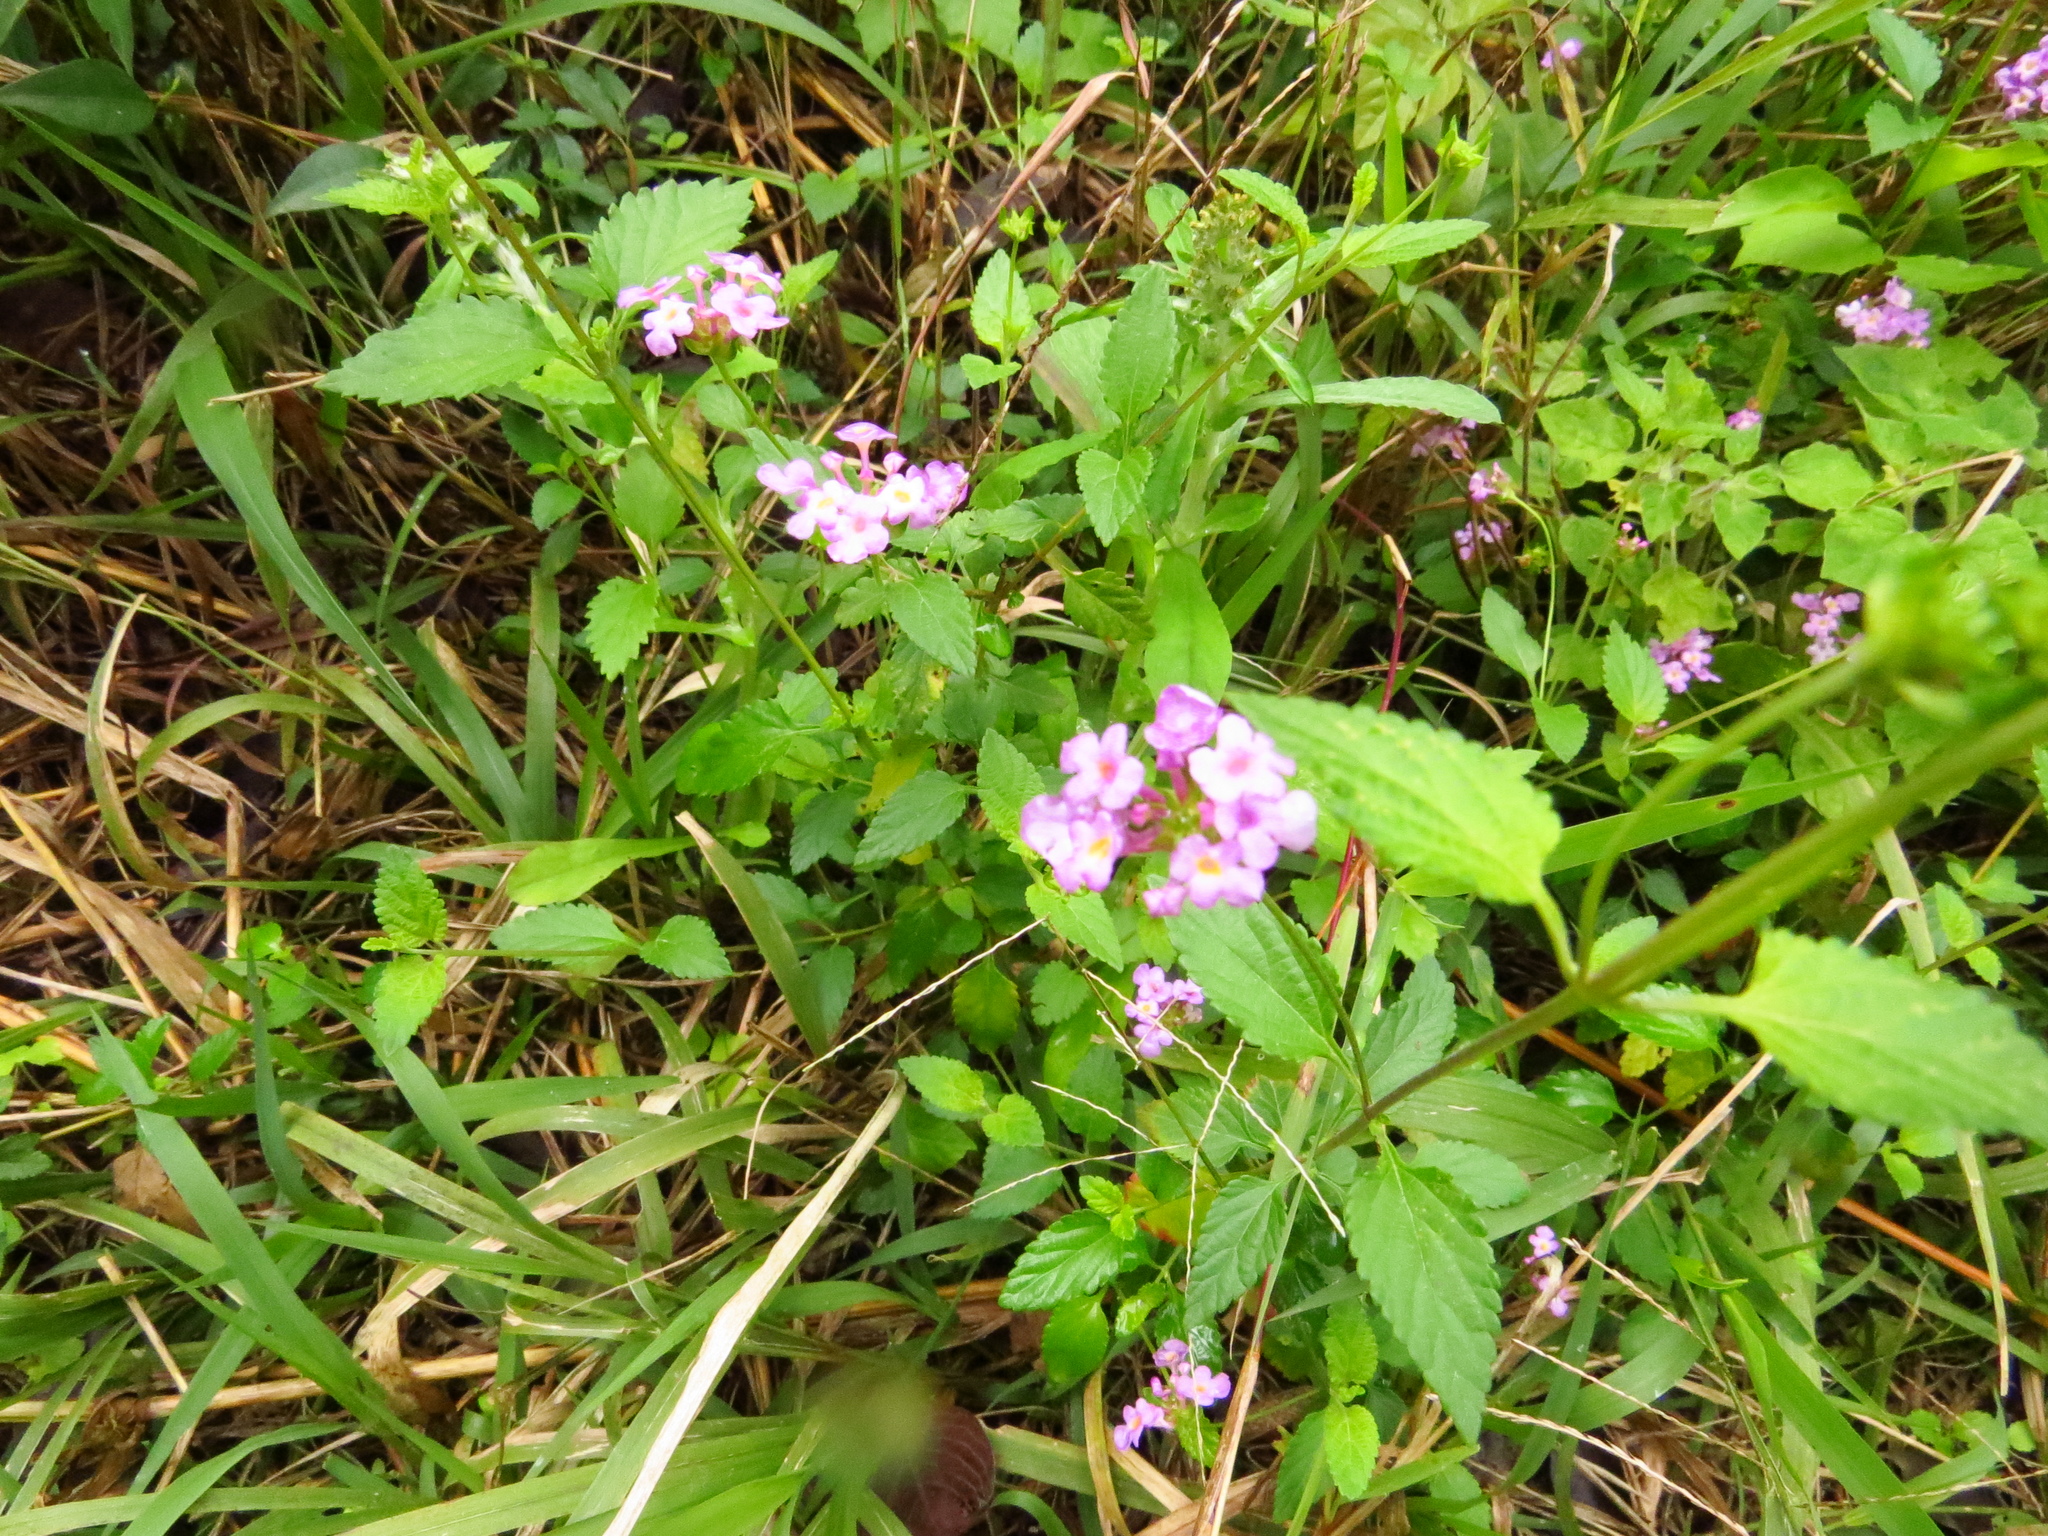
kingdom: Plantae
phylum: Tracheophyta
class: Magnoliopsida
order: Lamiales
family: Verbenaceae
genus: Lantana
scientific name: Lantana megapotamica
